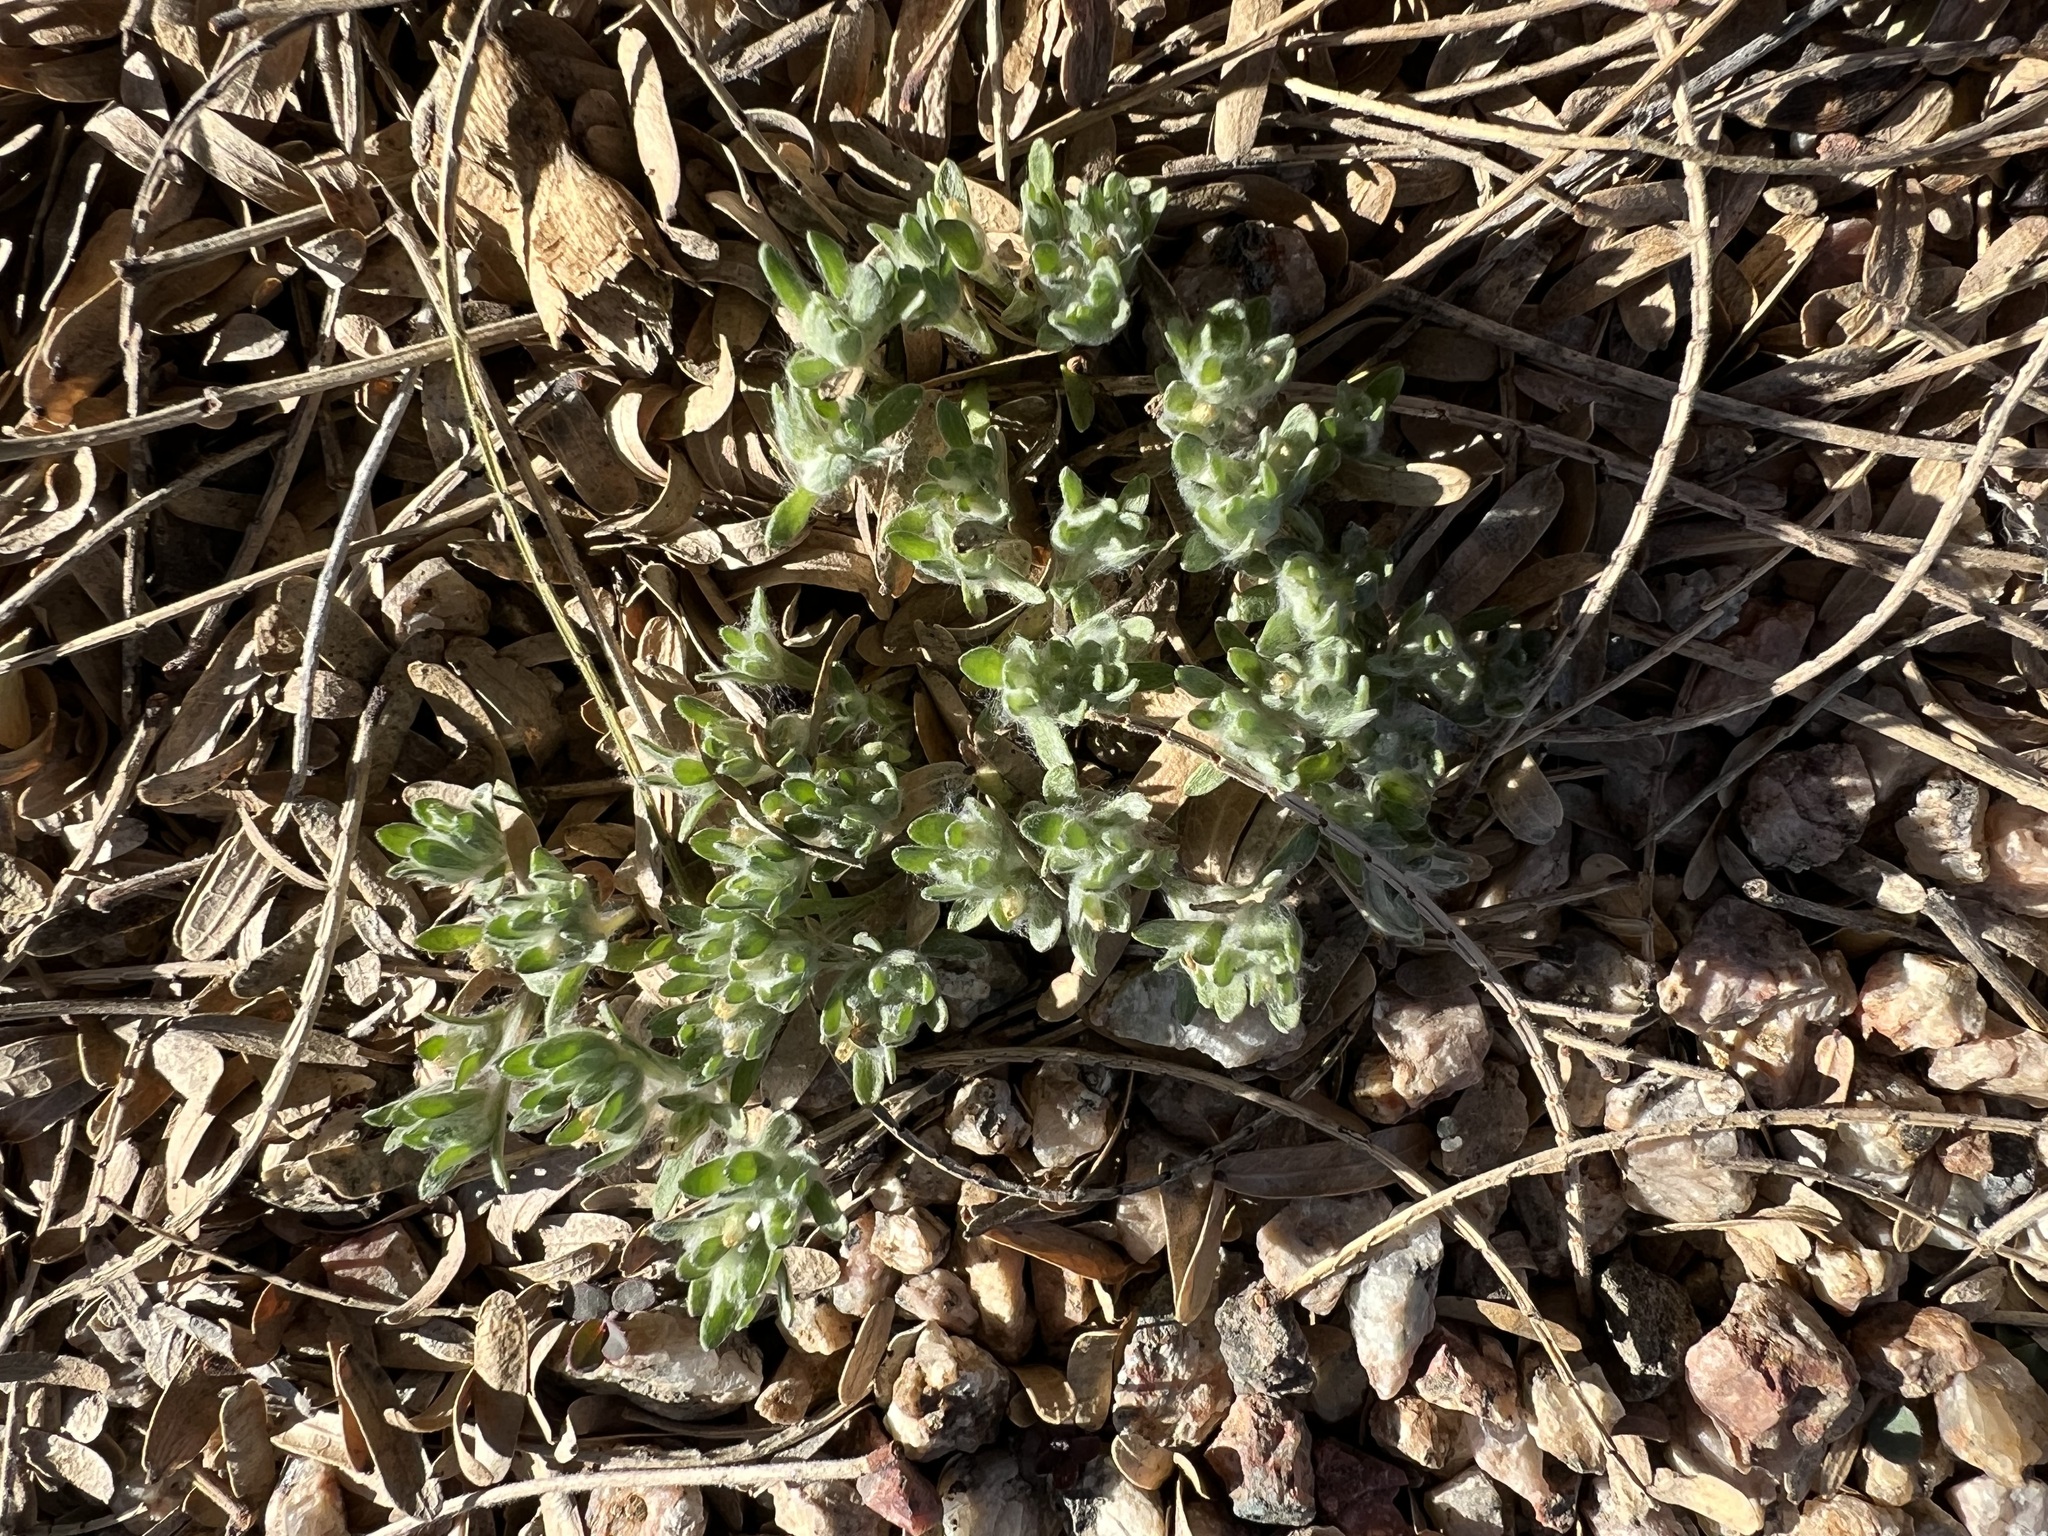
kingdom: Plantae
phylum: Tracheophyta
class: Magnoliopsida
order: Asterales
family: Asteraceae
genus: Lasiopogon
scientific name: Lasiopogon glomerulatus
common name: Green cat thorn
